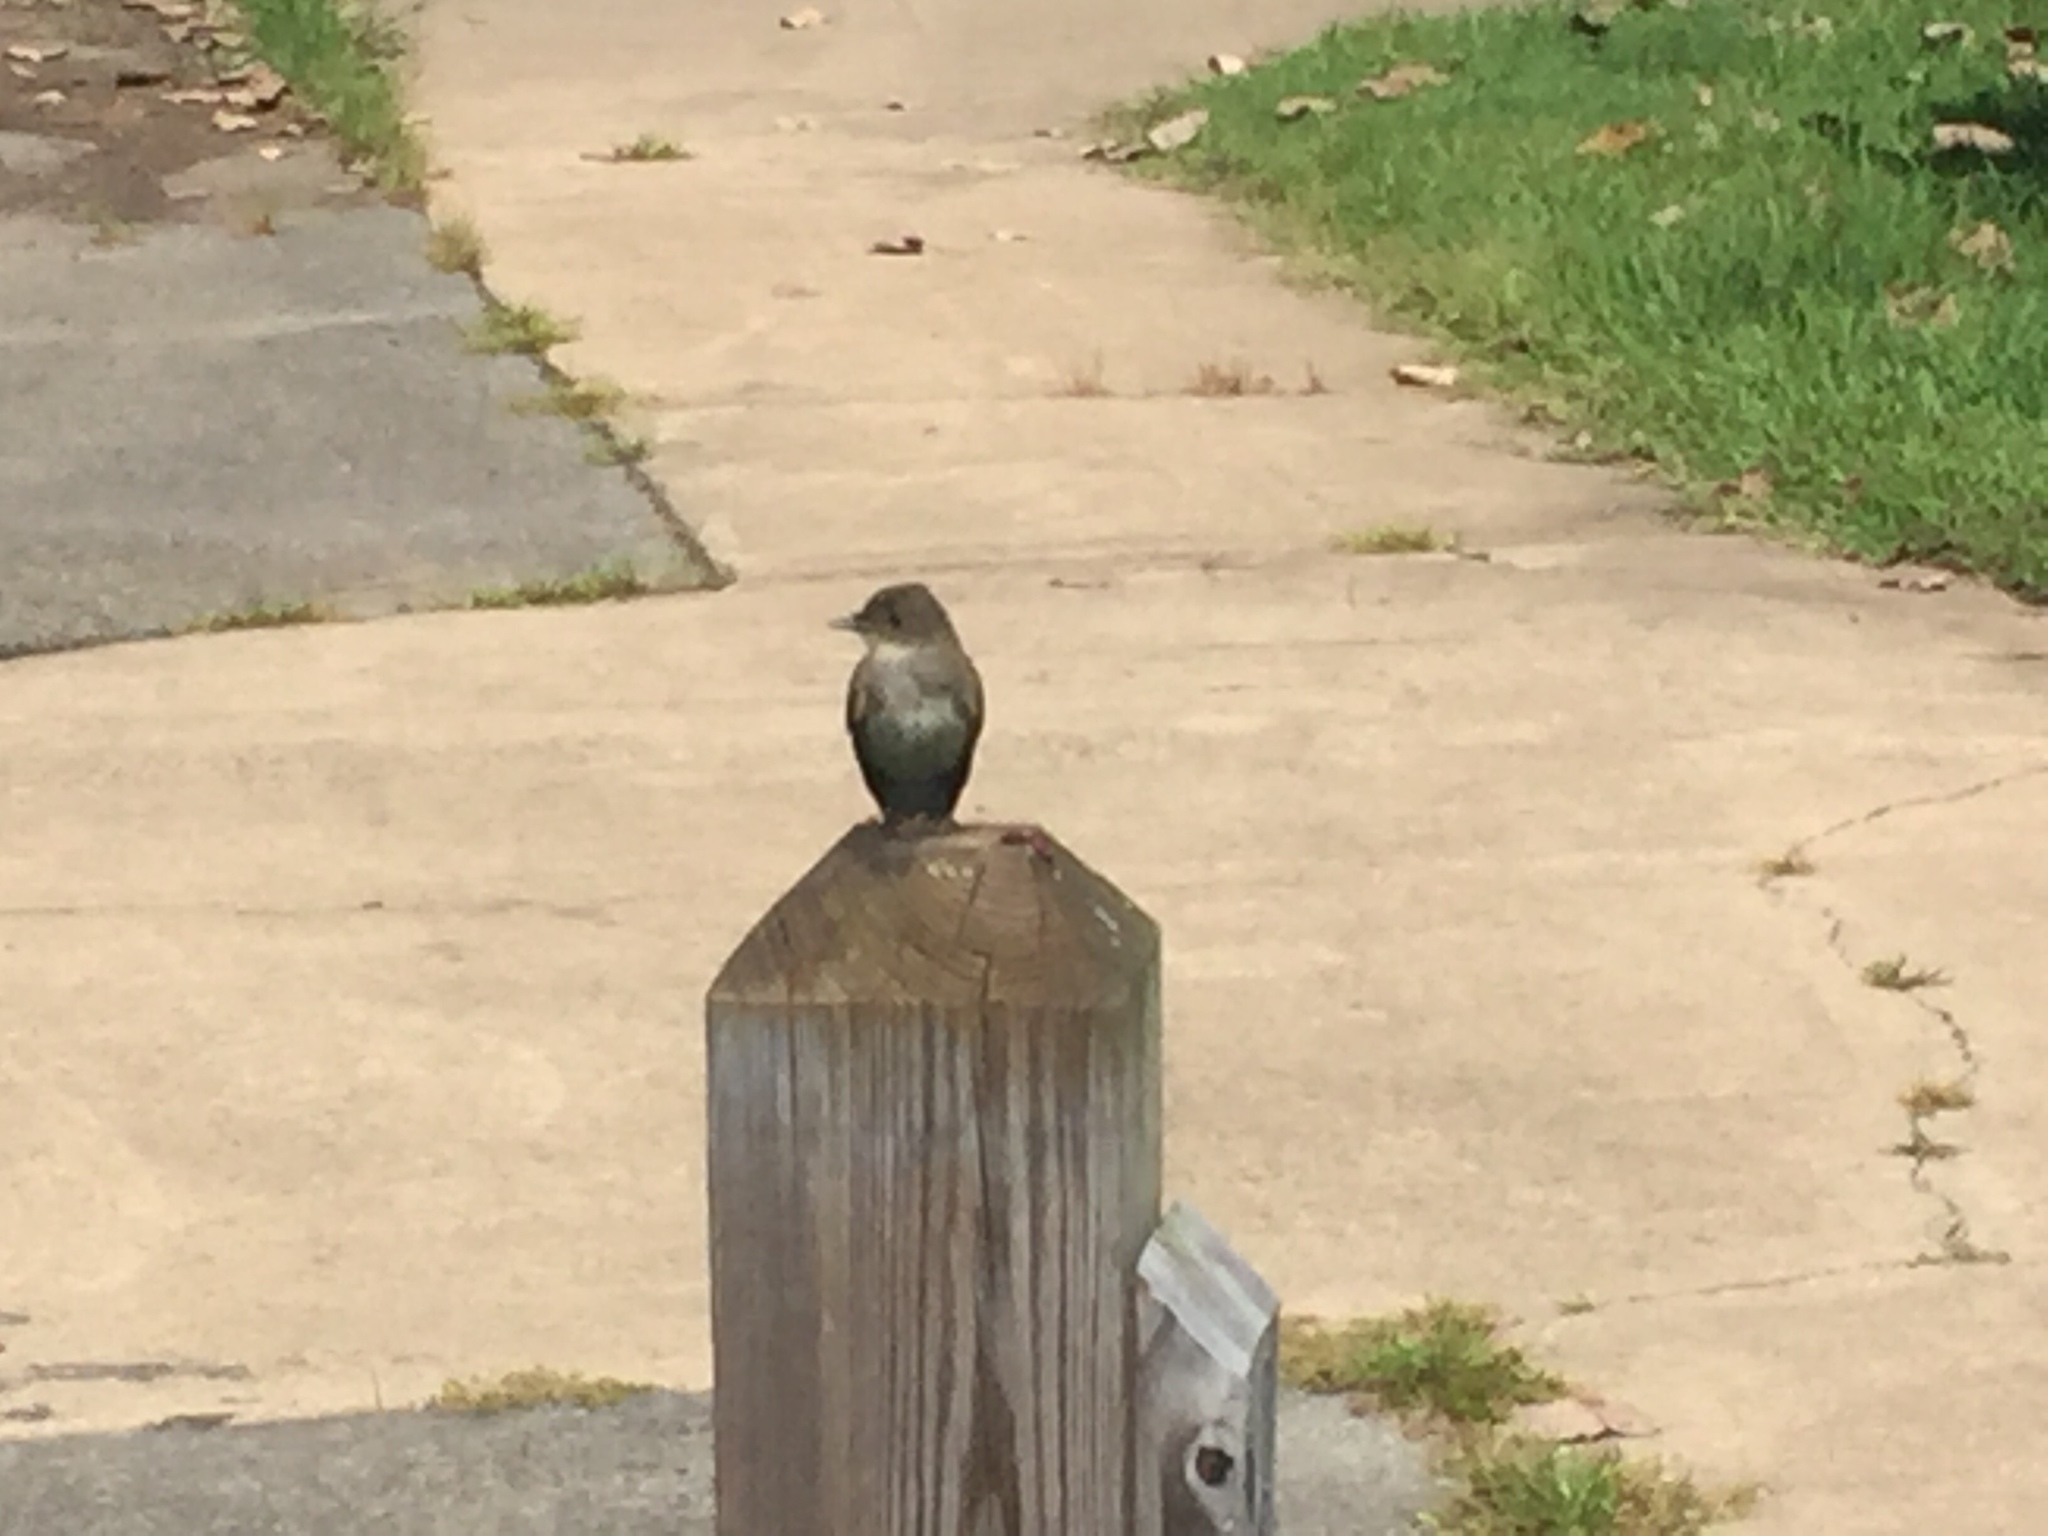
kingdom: Animalia
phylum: Chordata
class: Aves
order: Passeriformes
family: Tyrannidae
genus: Sayornis
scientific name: Sayornis phoebe
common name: Eastern phoebe
